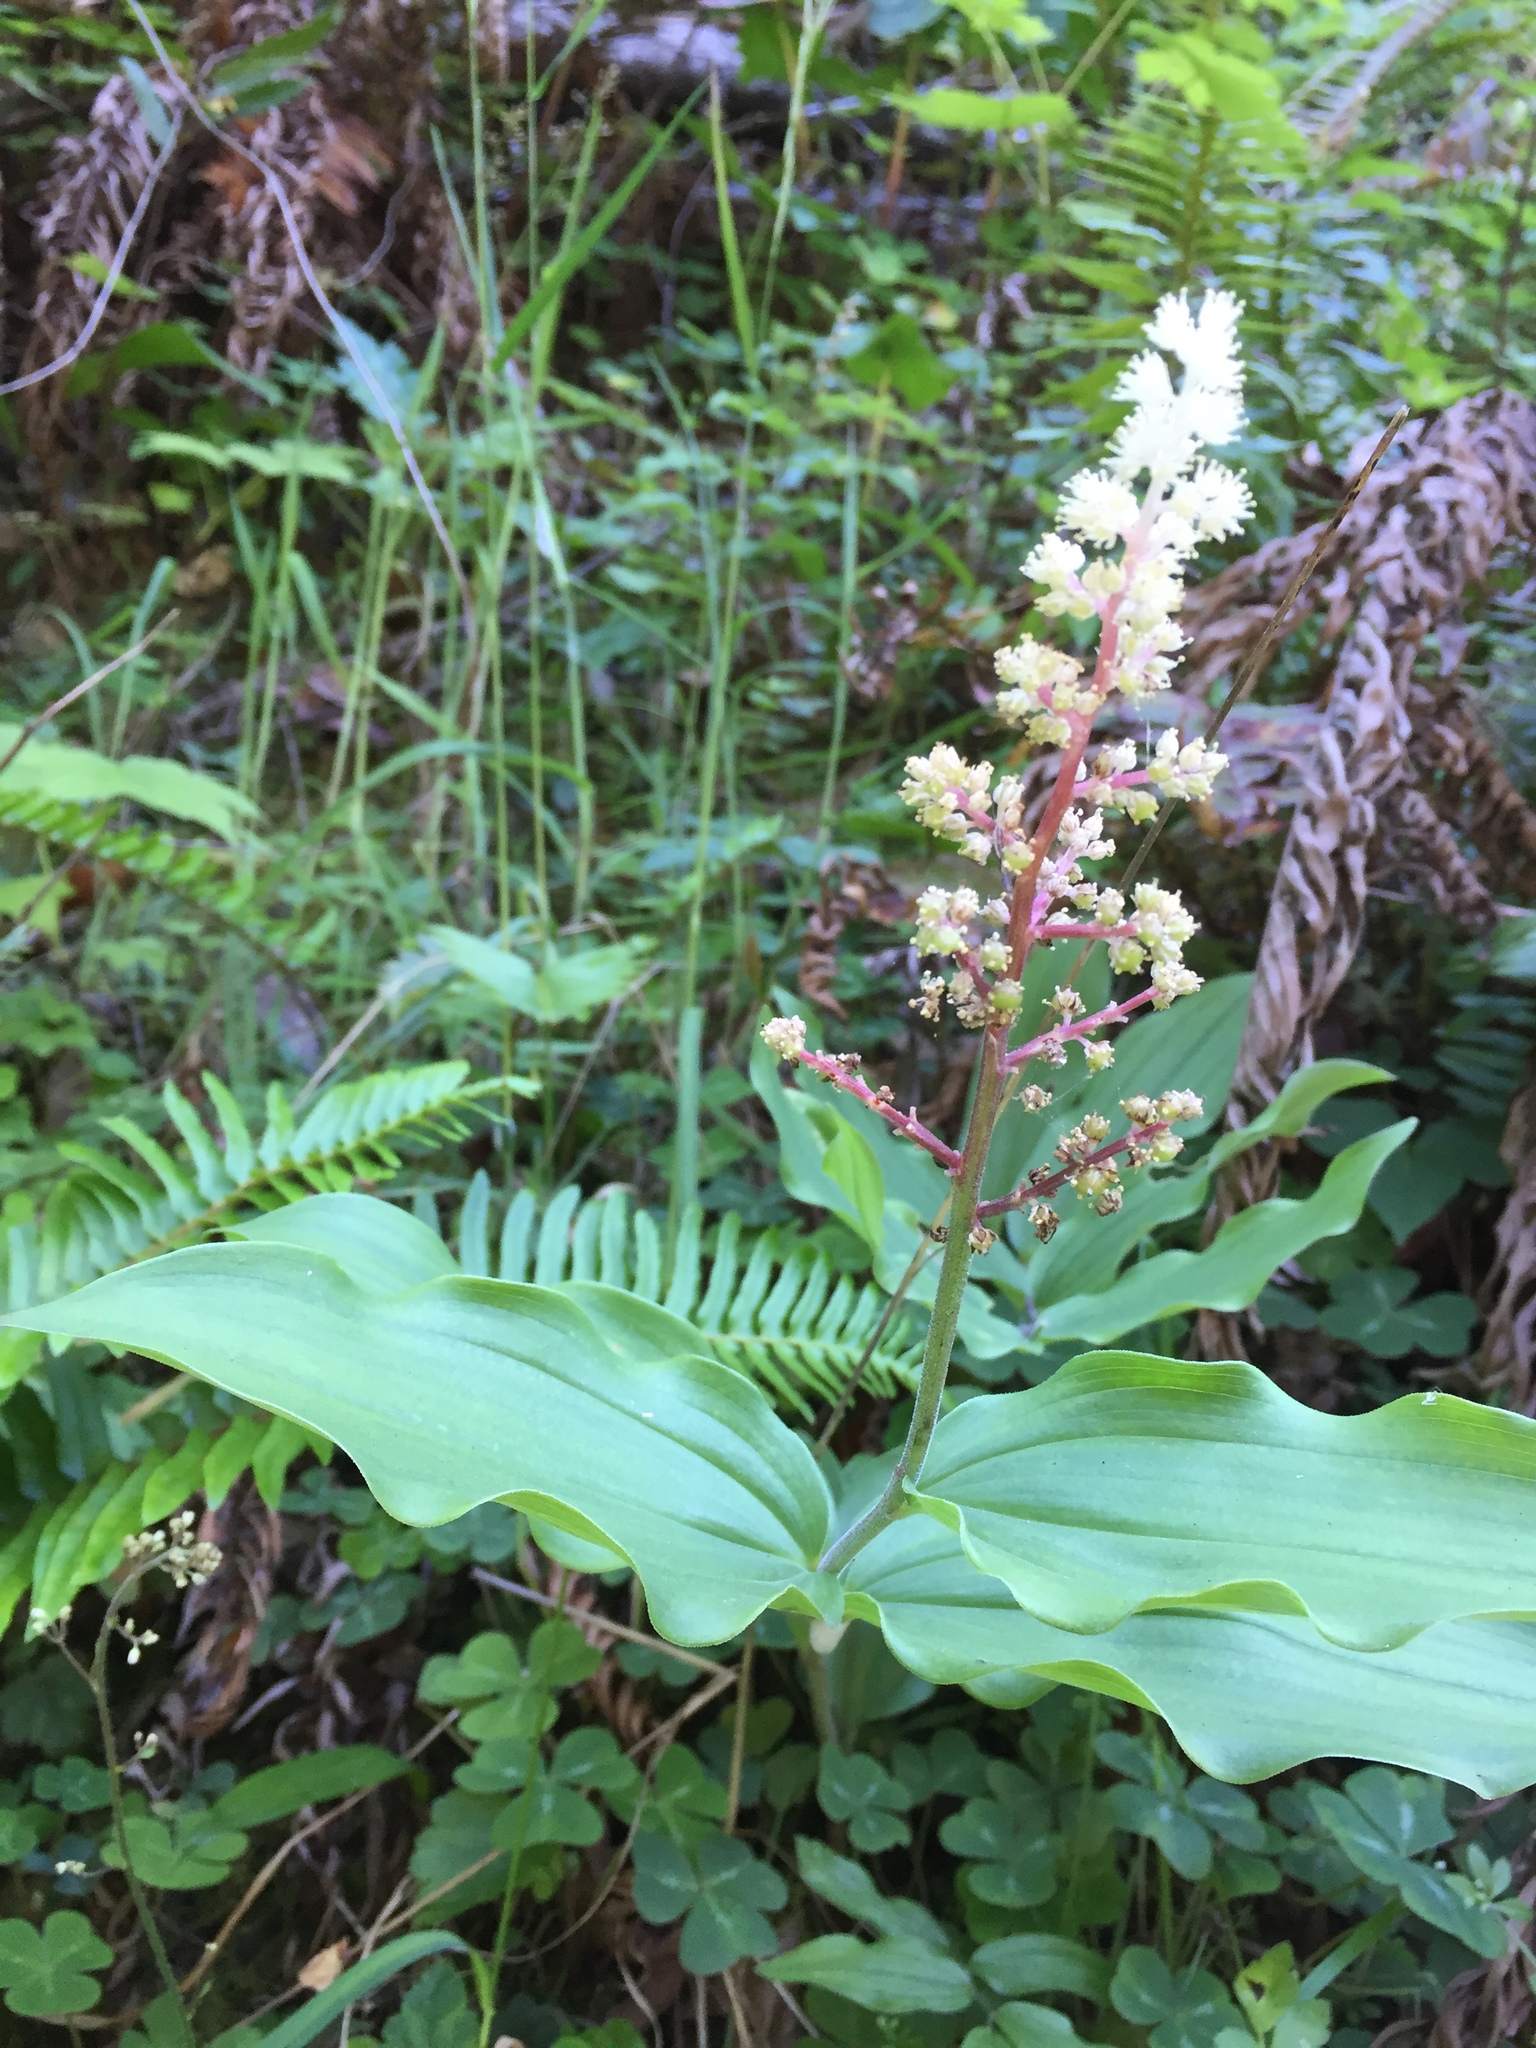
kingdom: Plantae
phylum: Tracheophyta
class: Liliopsida
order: Asparagales
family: Asparagaceae
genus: Maianthemum
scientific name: Maianthemum racemosum
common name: False spikenard
